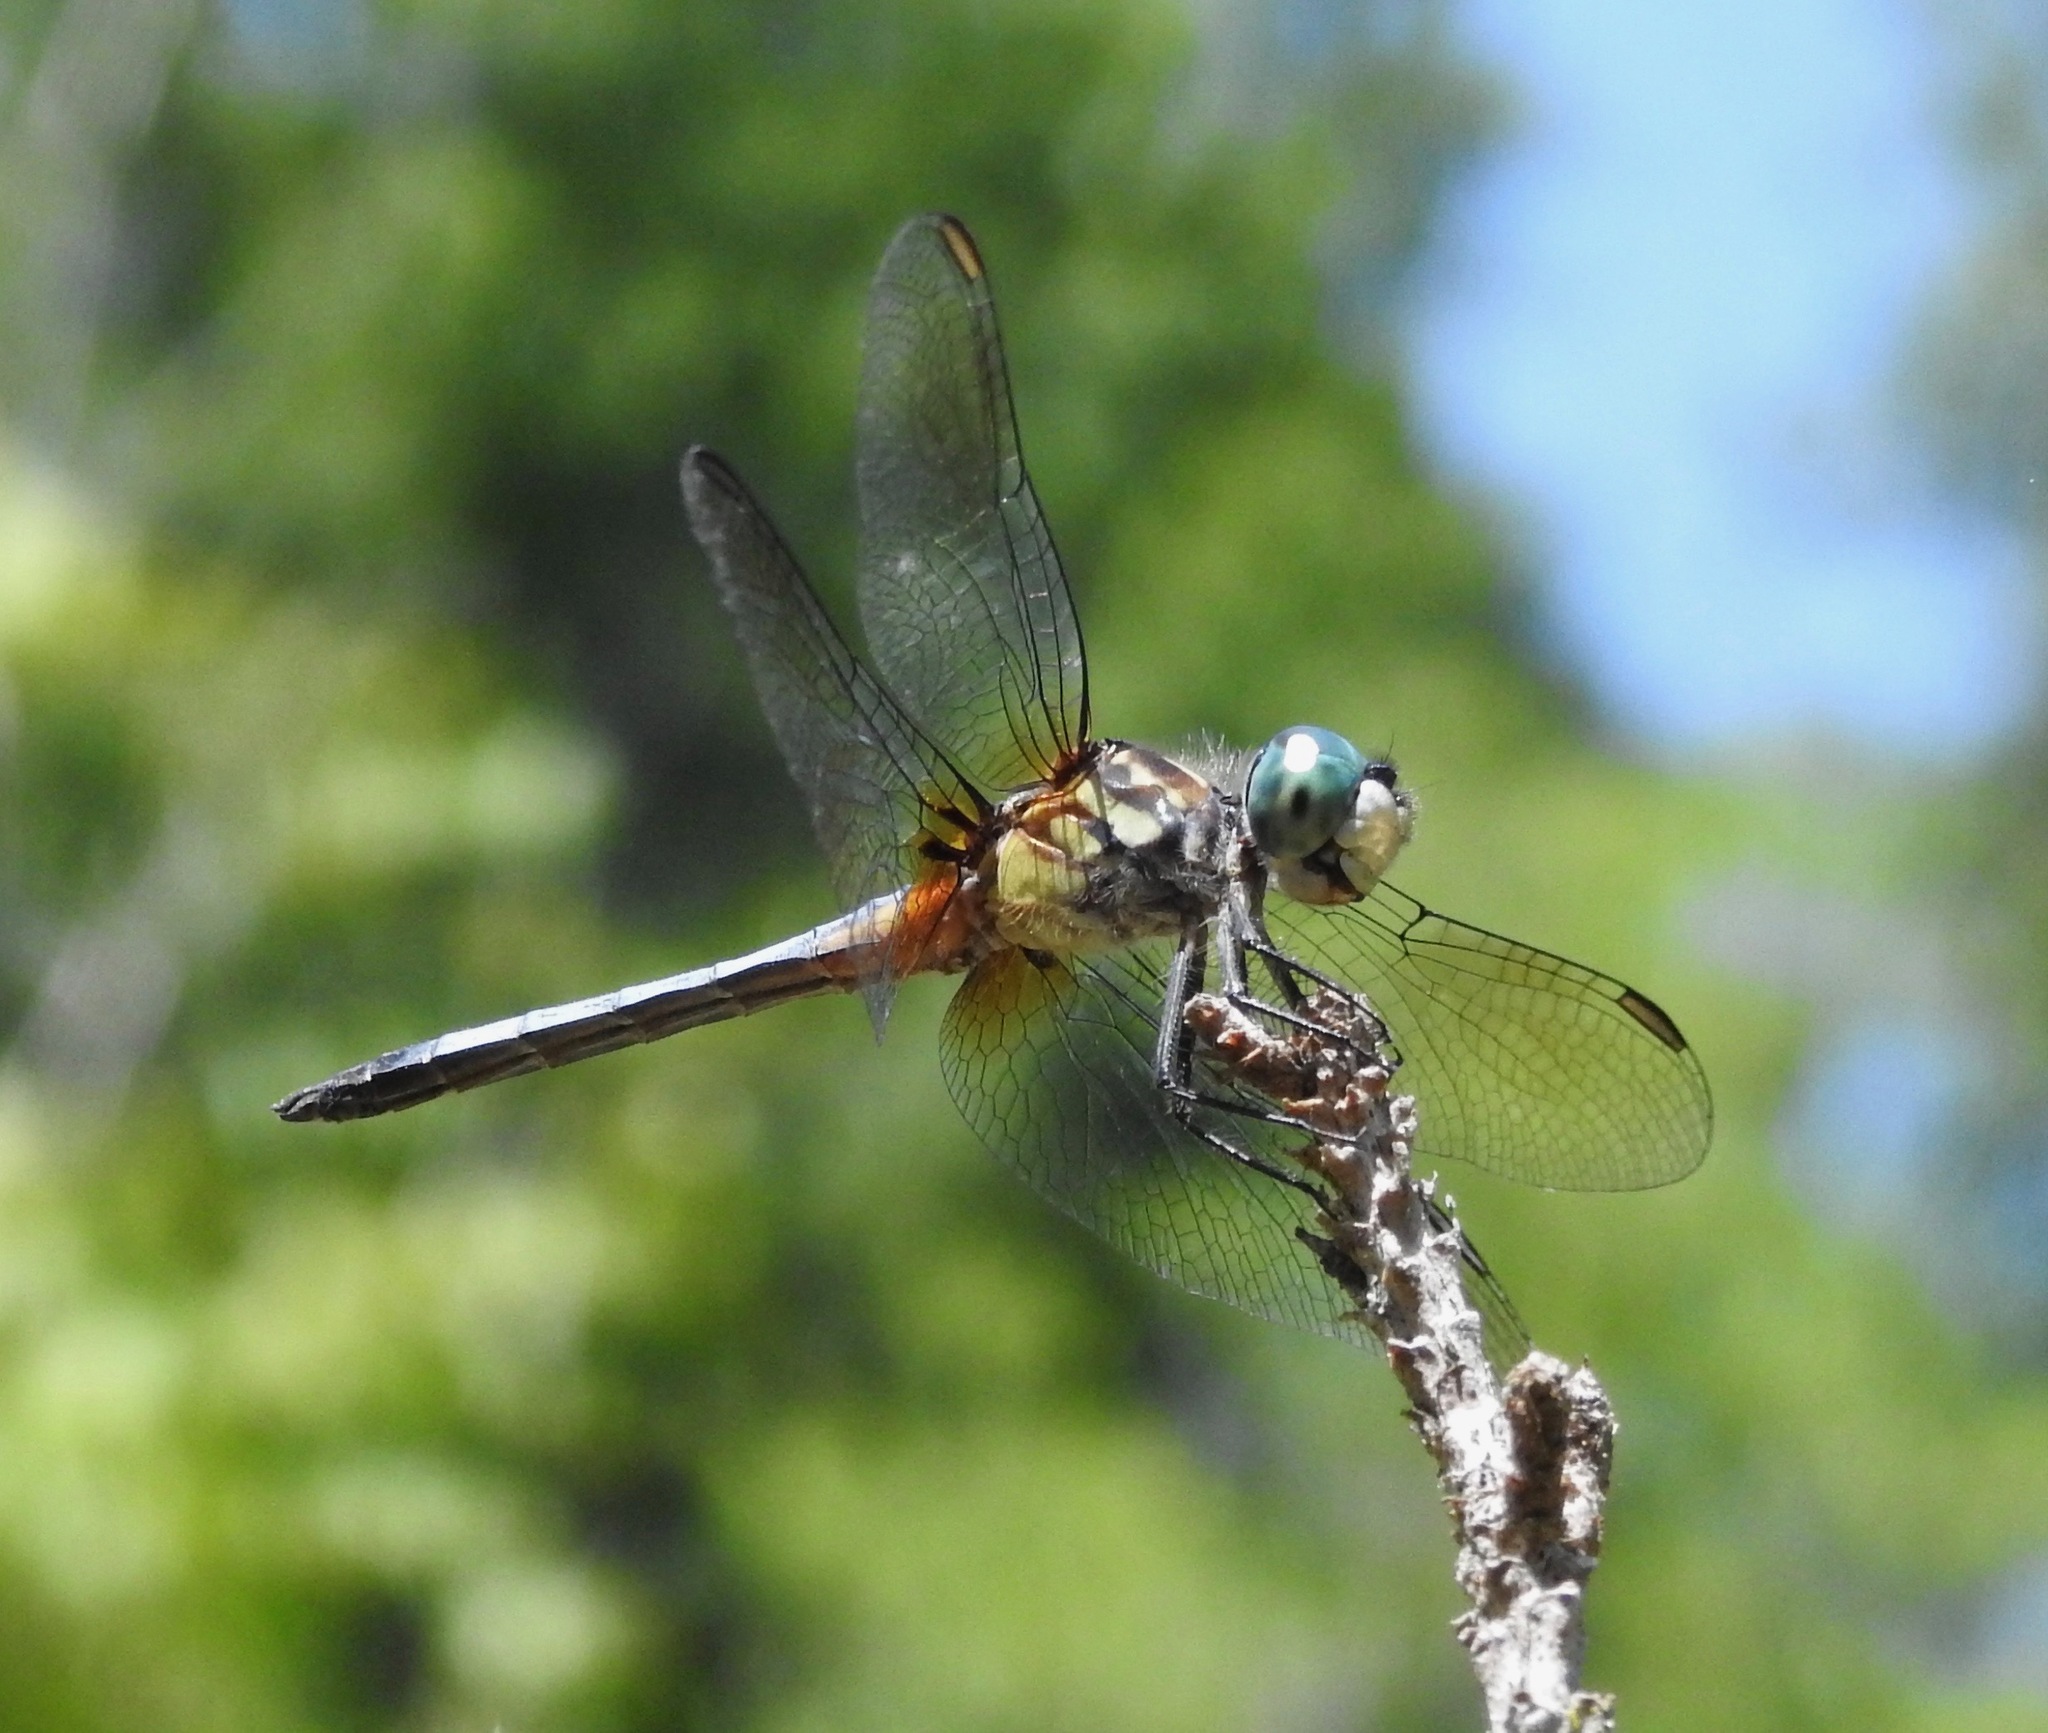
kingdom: Animalia
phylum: Arthropoda
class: Insecta
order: Odonata
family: Libellulidae
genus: Pachydiplax
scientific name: Pachydiplax longipennis
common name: Blue dasher
